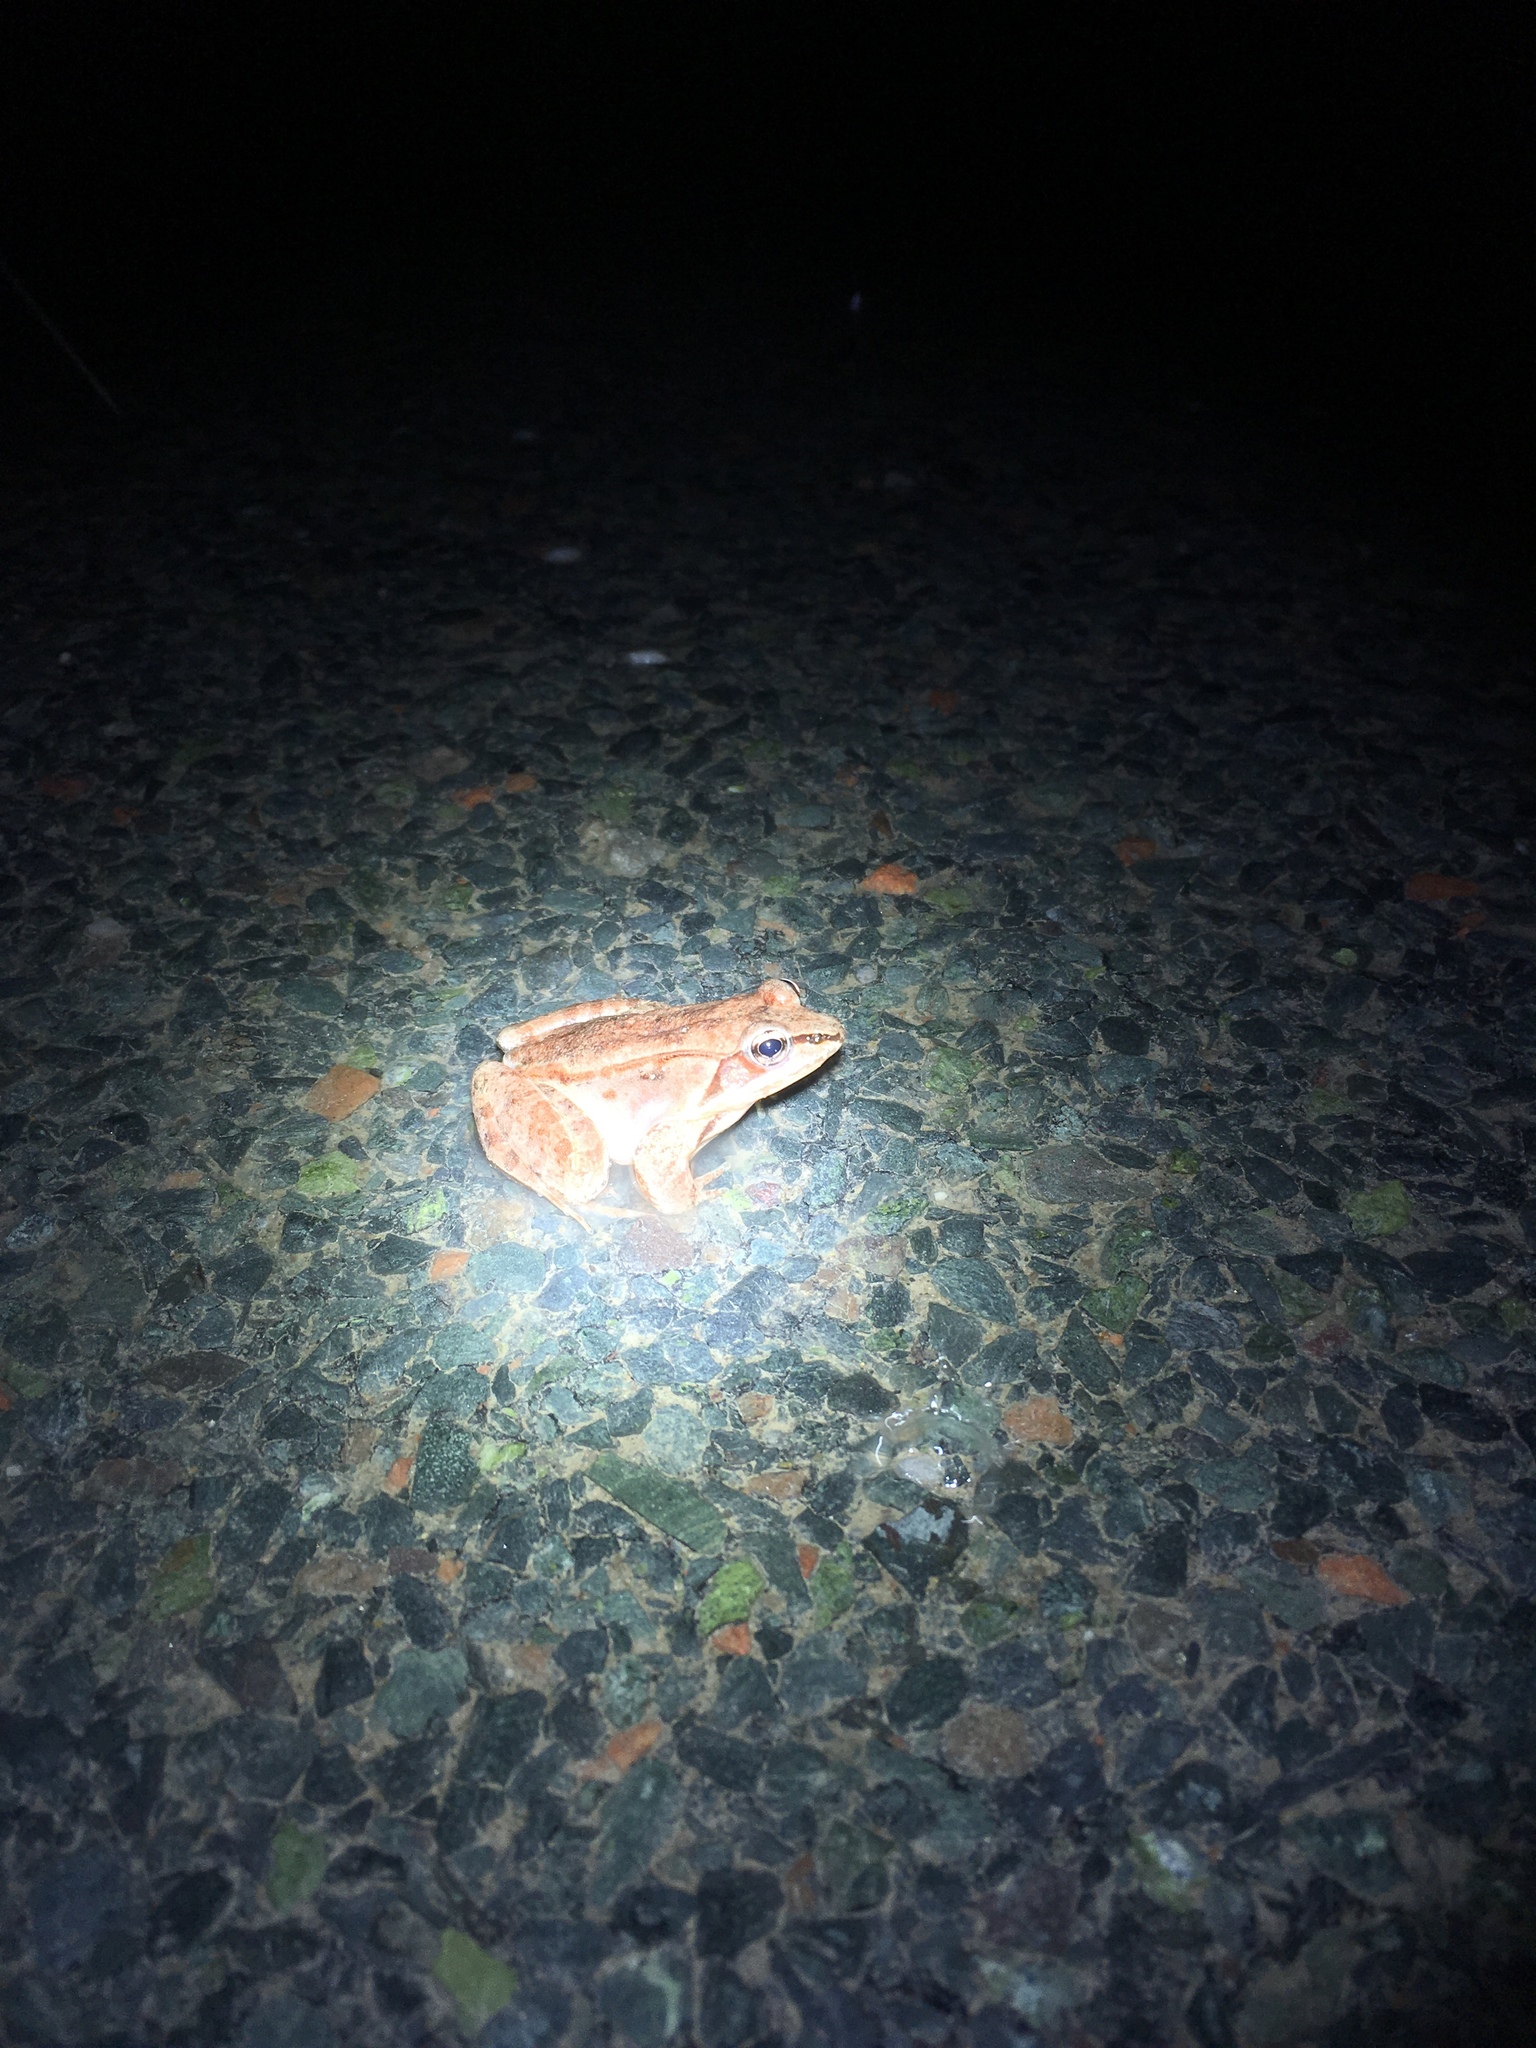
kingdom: Animalia
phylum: Chordata
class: Amphibia
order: Anura
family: Ranidae
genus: Lithobates
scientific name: Lithobates sylvaticus
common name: Wood frog
